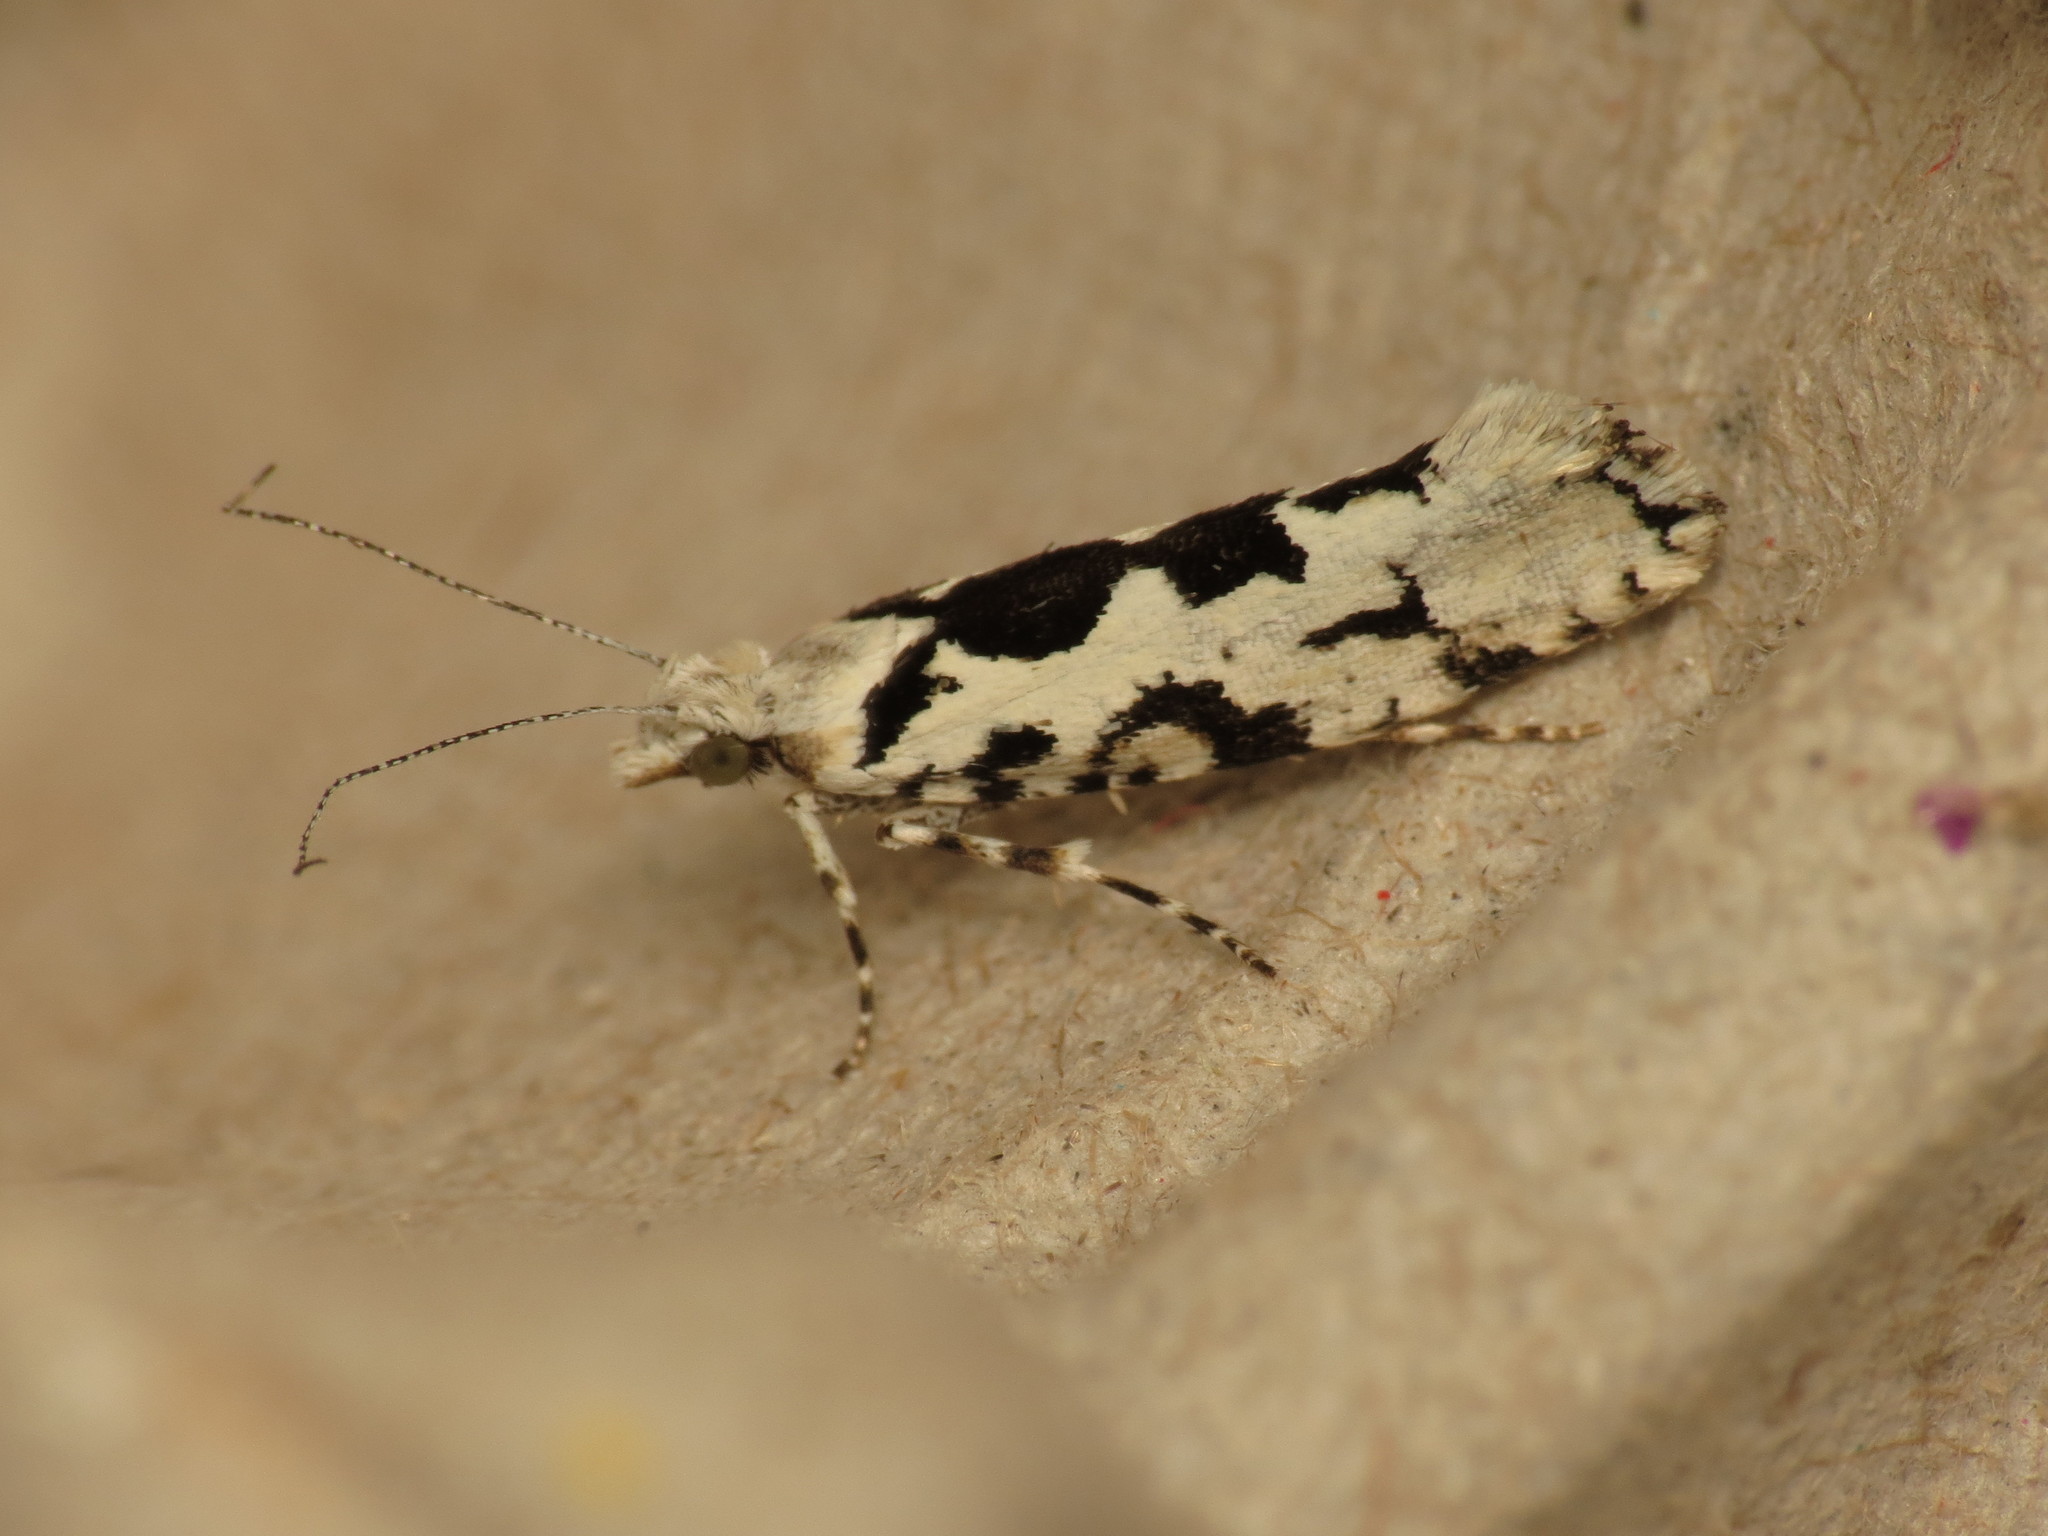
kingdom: Animalia
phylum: Arthropoda
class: Insecta
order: Lepidoptera
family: Plutellidae
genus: Ypsolophus
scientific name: Ypsolophus sequella
